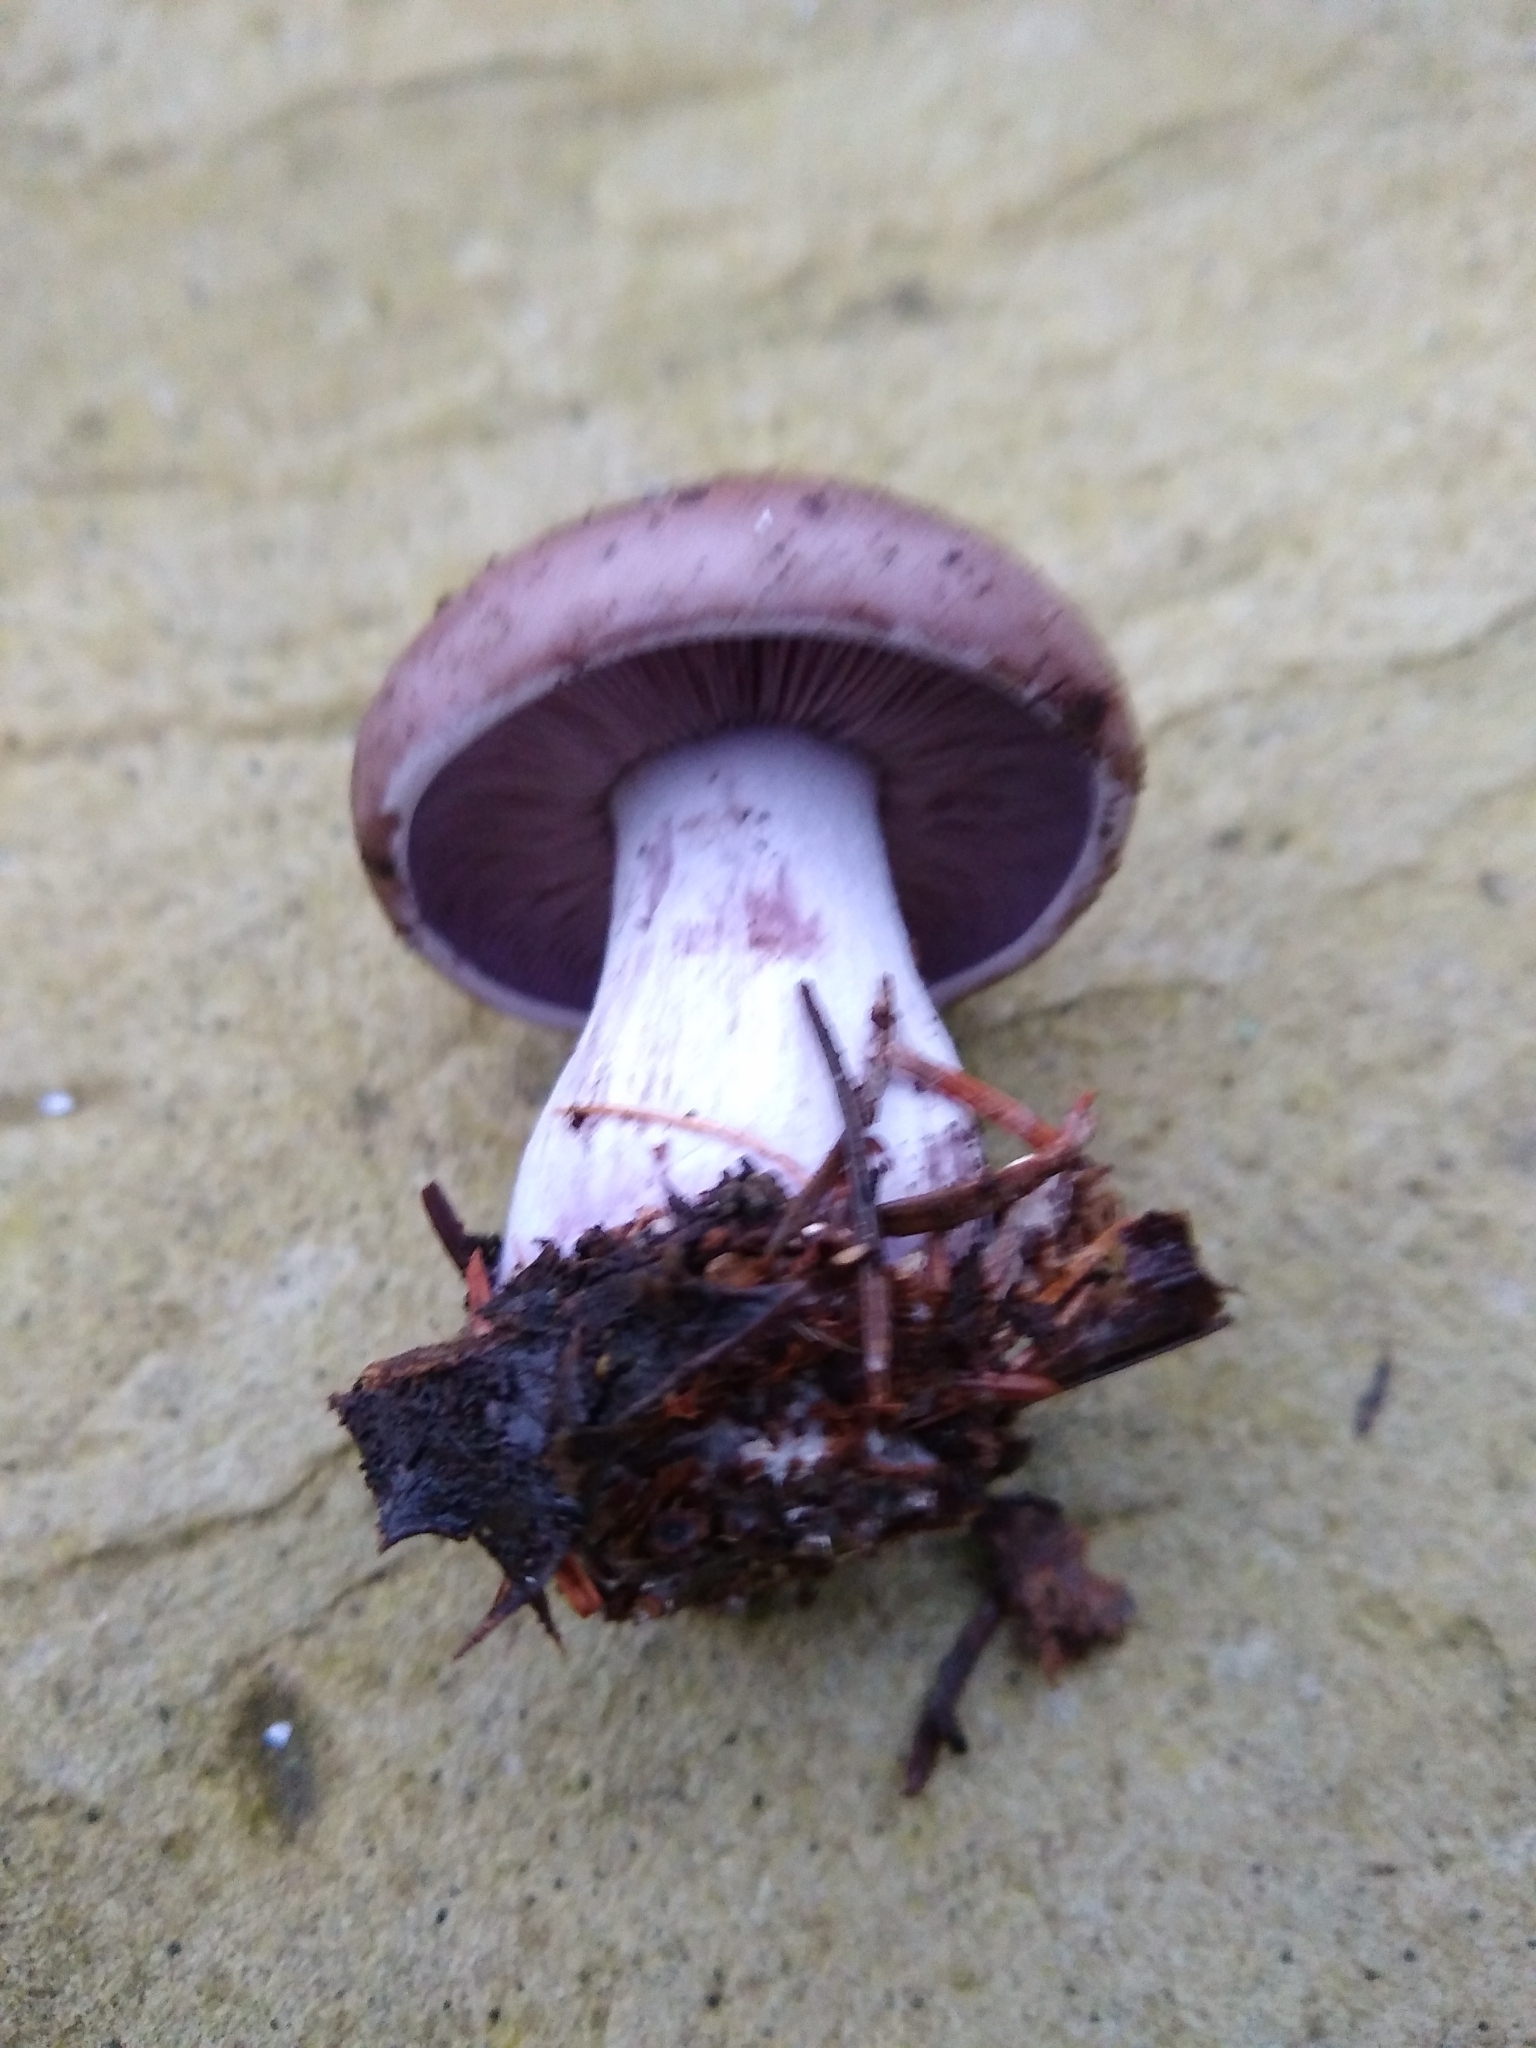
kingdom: Fungi
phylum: Basidiomycota
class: Agaricomycetes
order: Agaricales
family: Tricholomataceae
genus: Collybia
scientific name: Collybia
